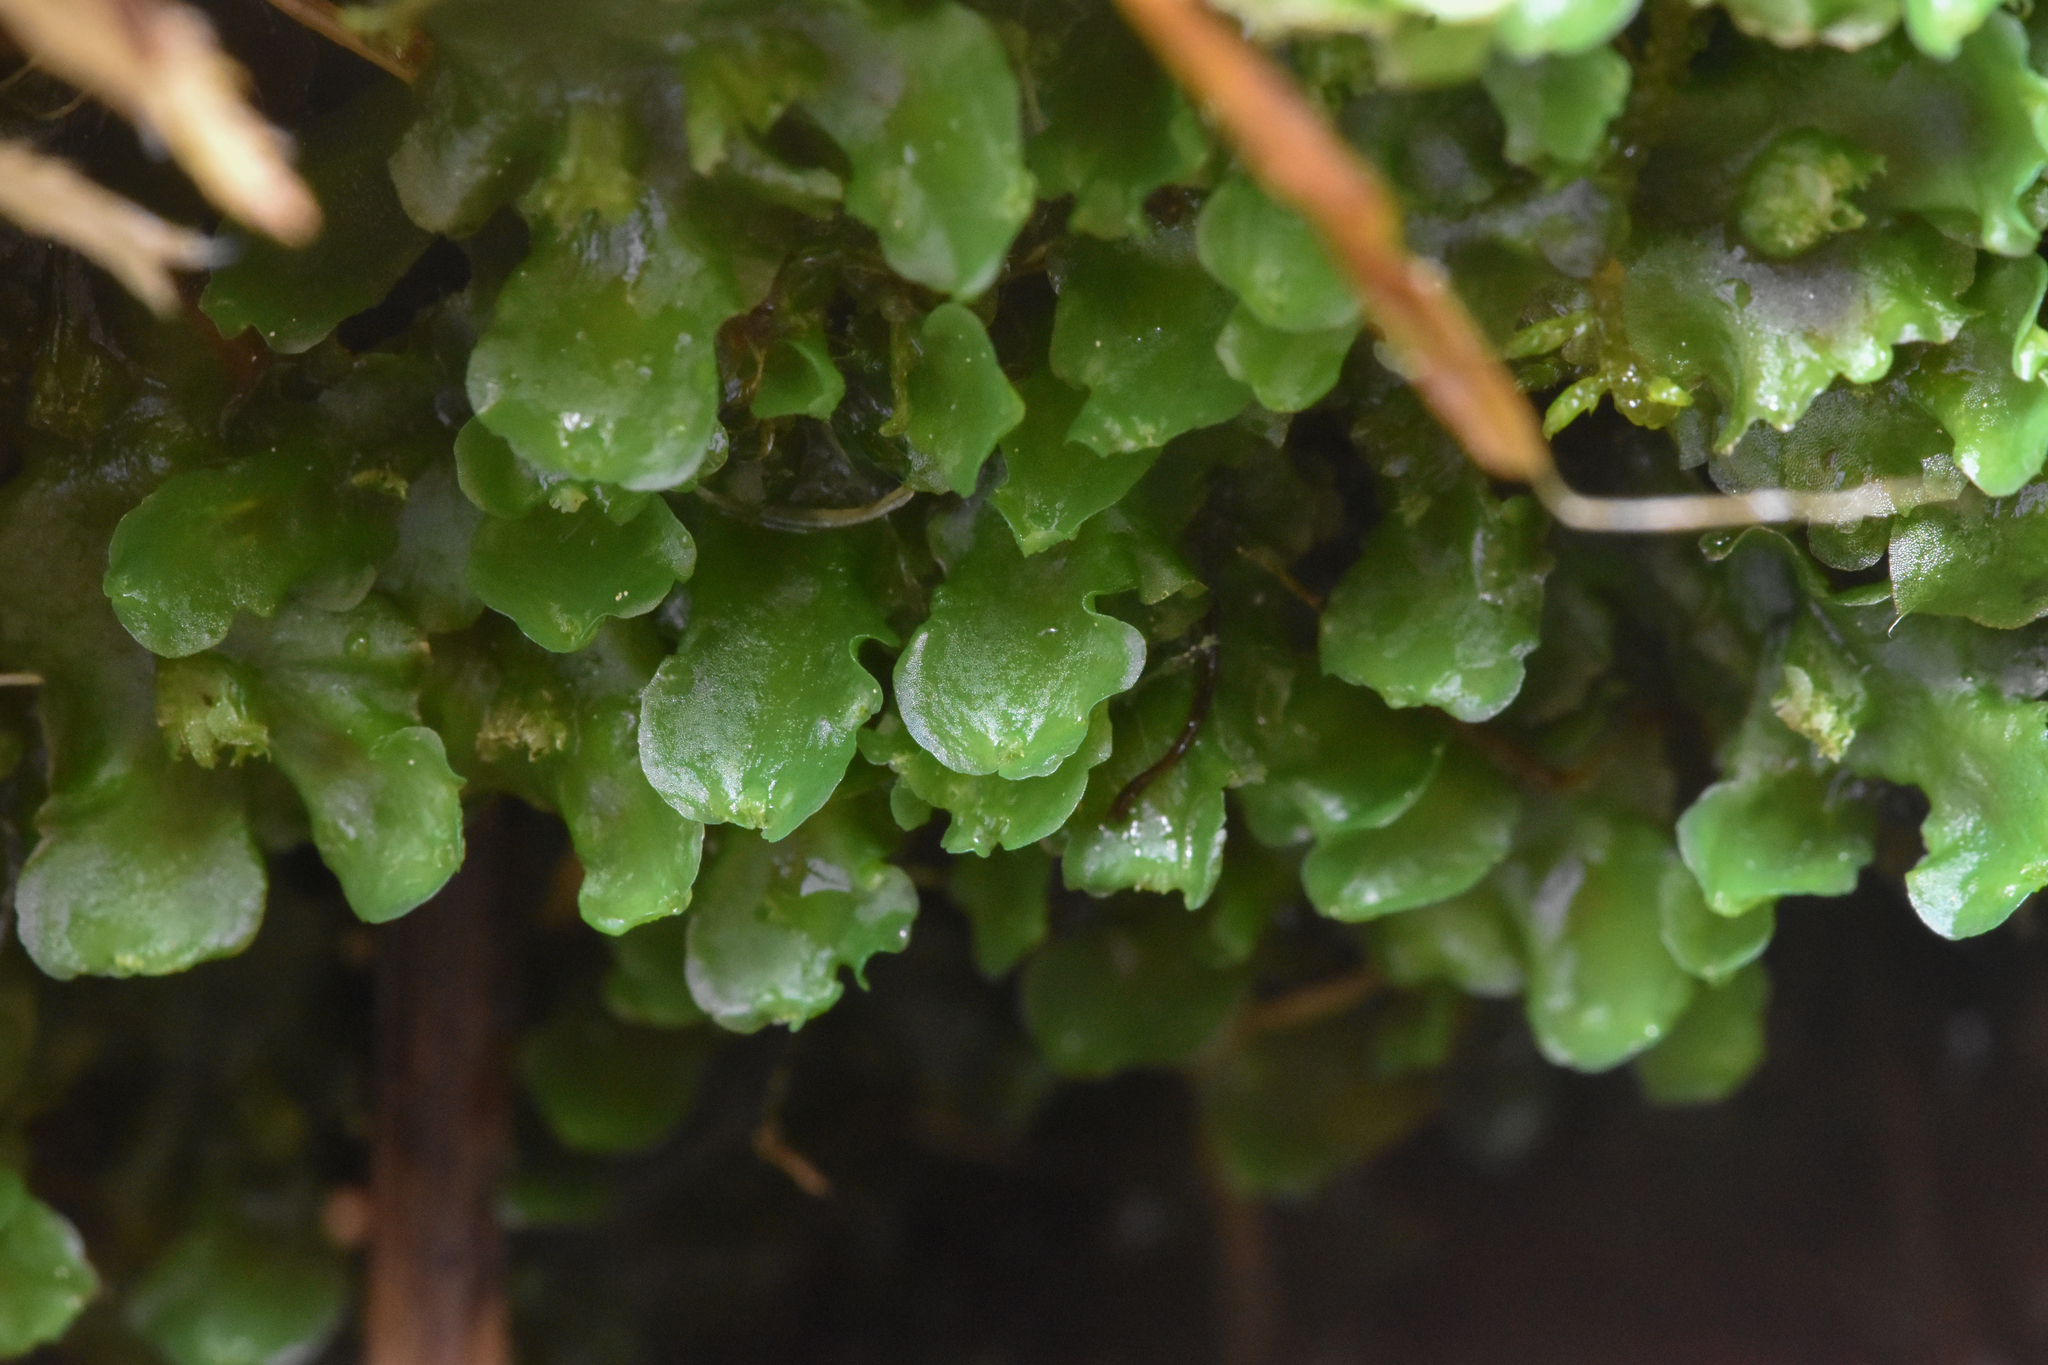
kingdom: Plantae
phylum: Marchantiophyta
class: Jungermanniopsida
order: Pelliales
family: Pelliaceae
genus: Pellia
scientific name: Pellia neesiana
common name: Nees  pellia
